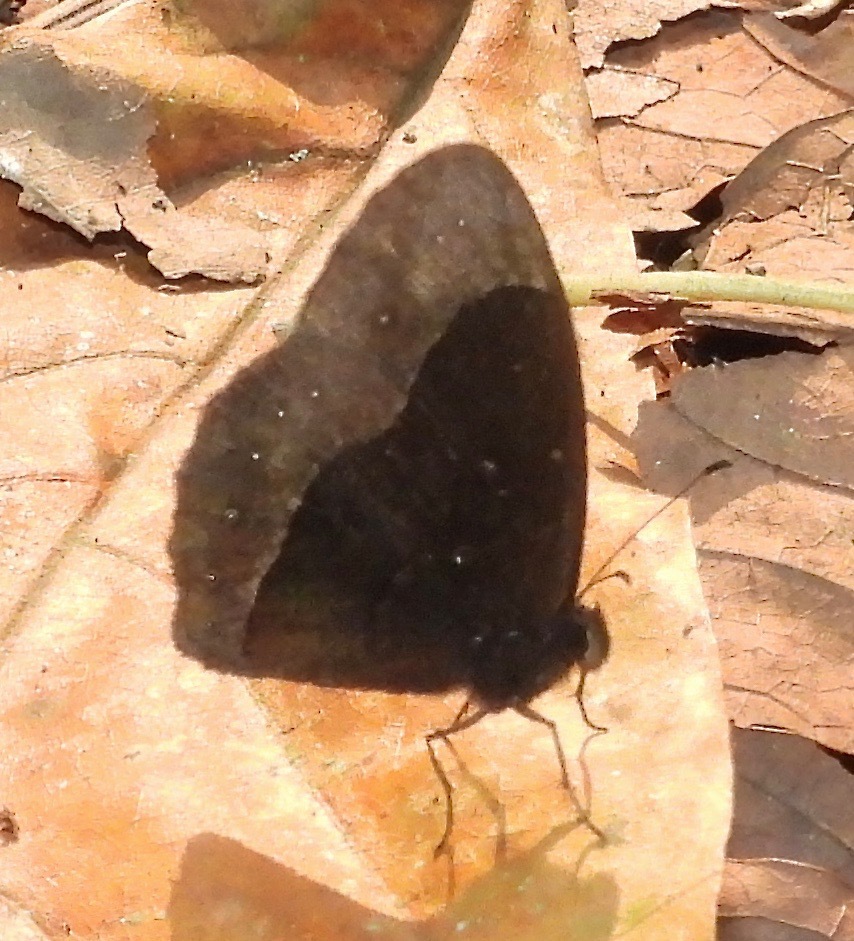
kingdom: Animalia
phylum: Arthropoda
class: Insecta
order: Lepidoptera
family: Nymphalidae
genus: Bicyclus
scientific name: Bicyclus
